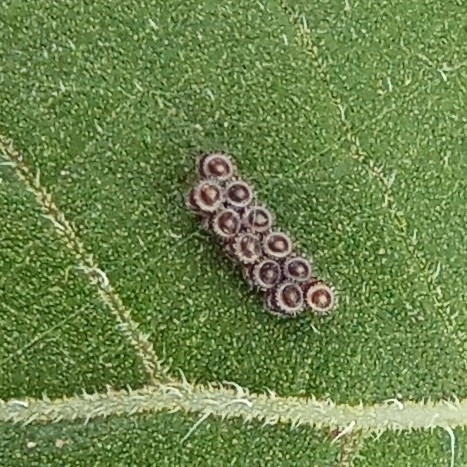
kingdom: Animalia
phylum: Arthropoda
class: Insecta
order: Hemiptera
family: Pentatomidae
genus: Piezodorus
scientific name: Piezodorus lituratus
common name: Stink bug
